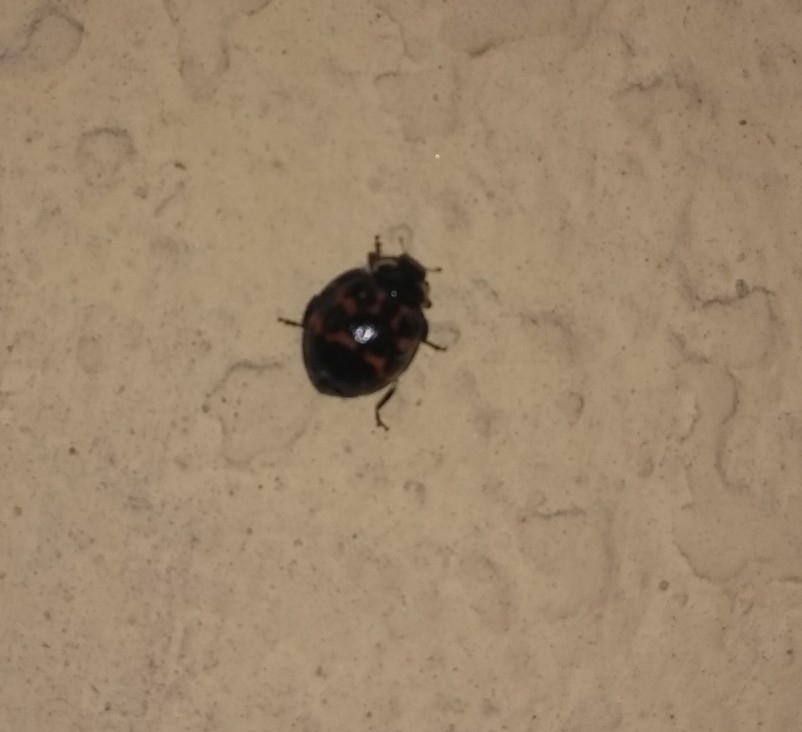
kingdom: Animalia
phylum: Arthropoda
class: Insecta
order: Coleoptera
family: Coccinellidae
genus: Harmonia
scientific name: Harmonia axyridis
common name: Harlequin ladybird
